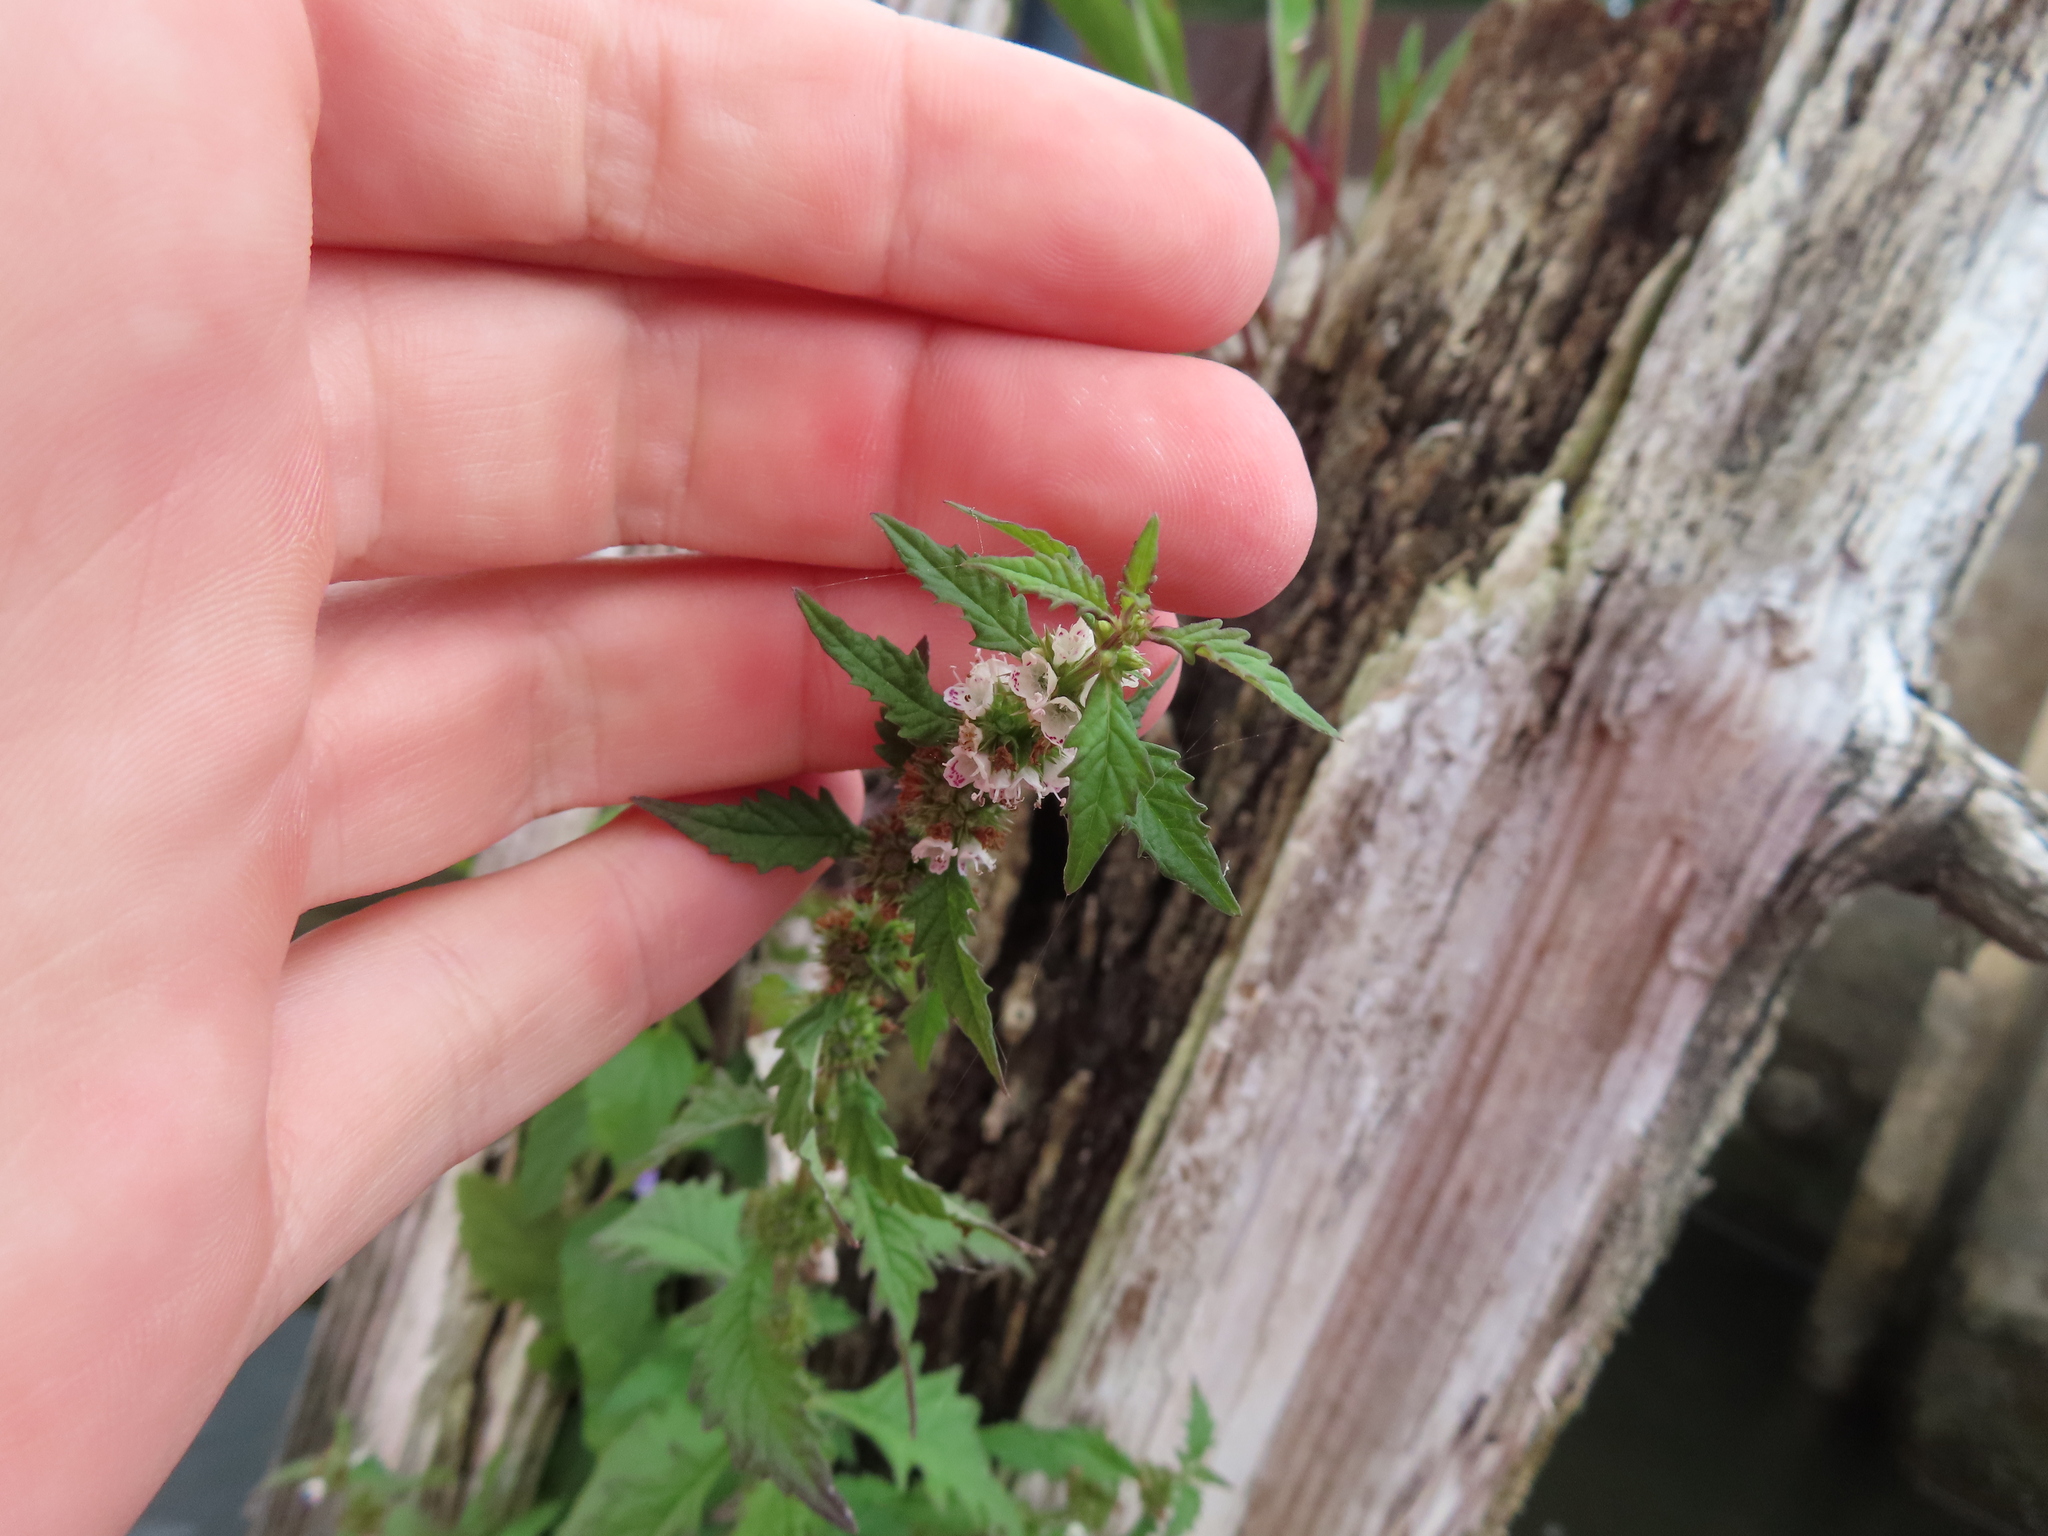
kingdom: Plantae
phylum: Tracheophyta
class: Magnoliopsida
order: Lamiales
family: Lamiaceae
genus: Lycopus
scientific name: Lycopus europaeus
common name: European bugleweed
